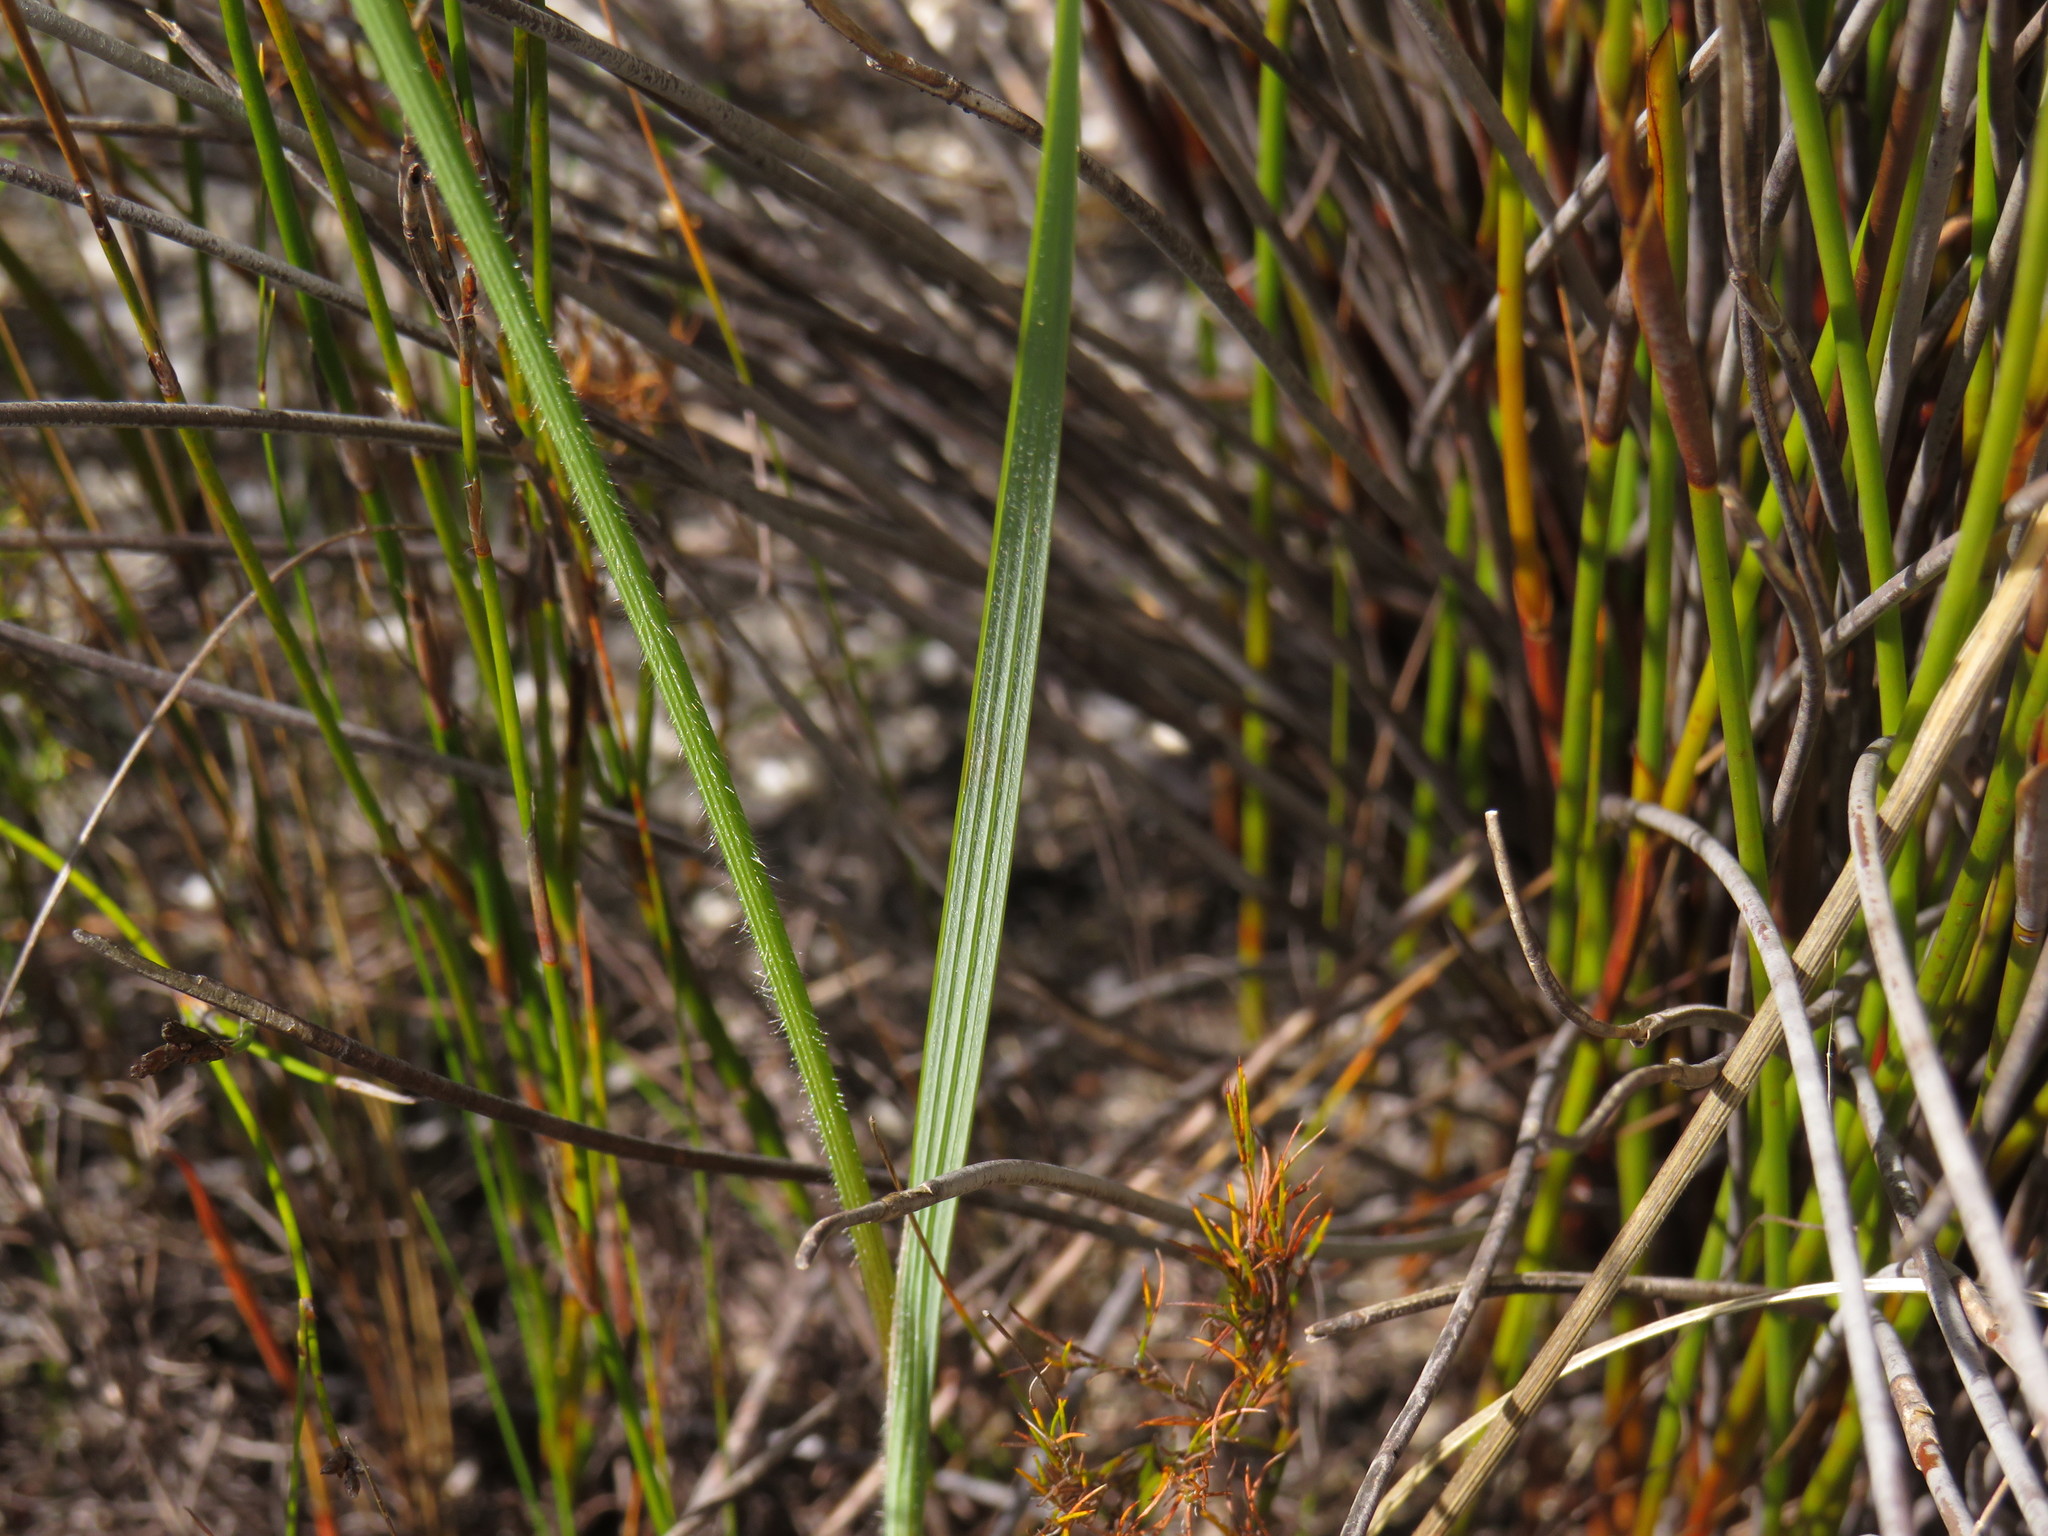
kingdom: Plantae
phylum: Tracheophyta
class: Liliopsida
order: Asparagales
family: Iridaceae
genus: Gladiolus
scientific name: Gladiolus hirsutus
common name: Small pink afrikaner
